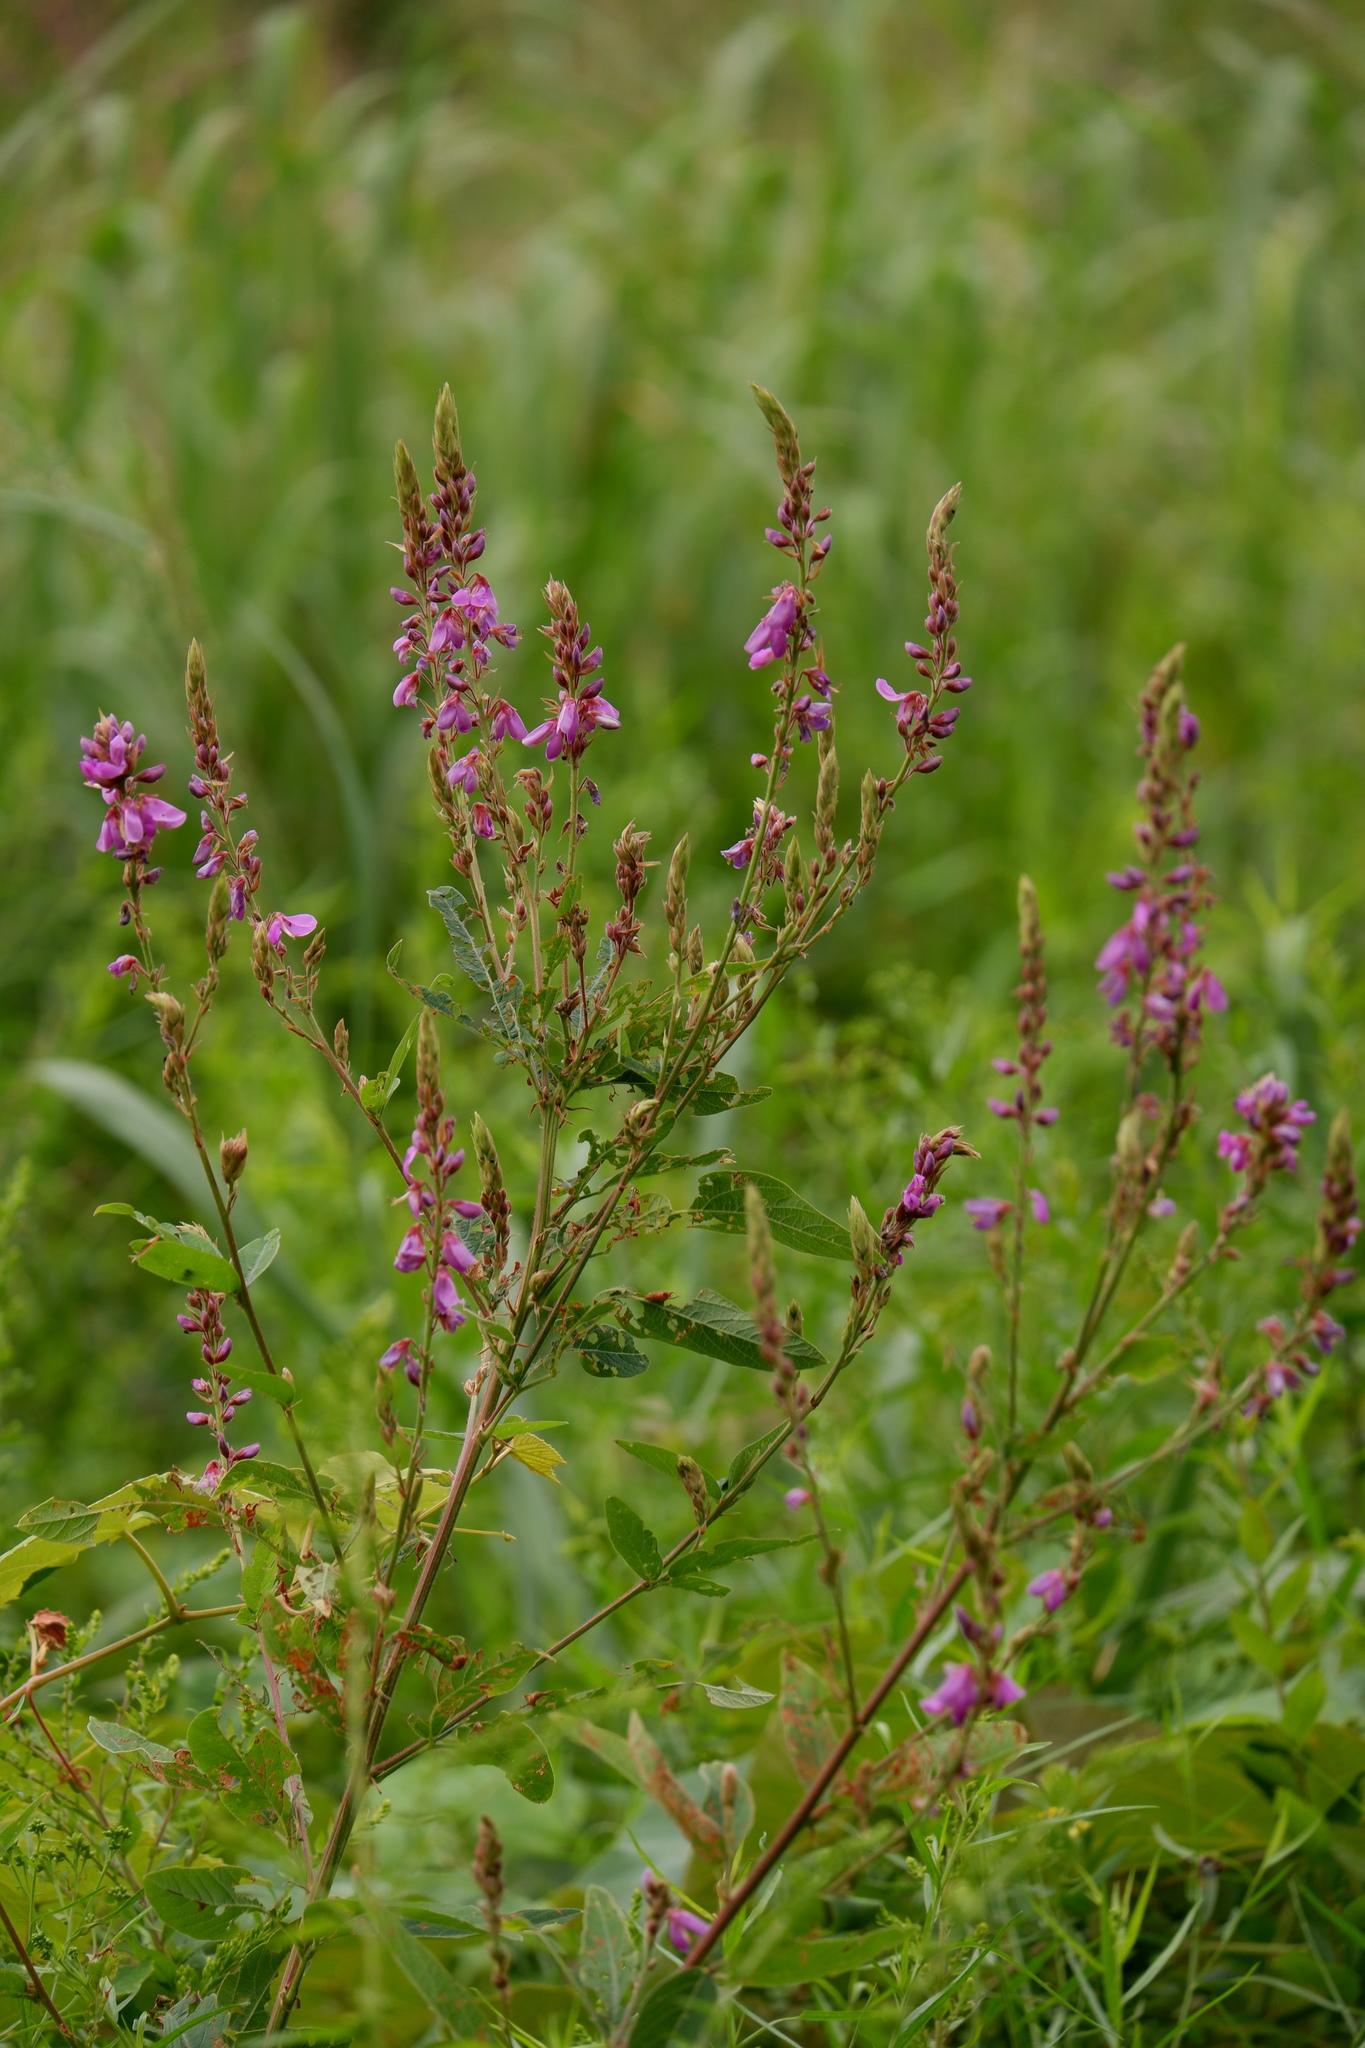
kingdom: Plantae
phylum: Tracheophyta
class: Magnoliopsida
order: Fabales
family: Fabaceae
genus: Desmodium
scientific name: Desmodium canadense
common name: Canada tick-trefoil
